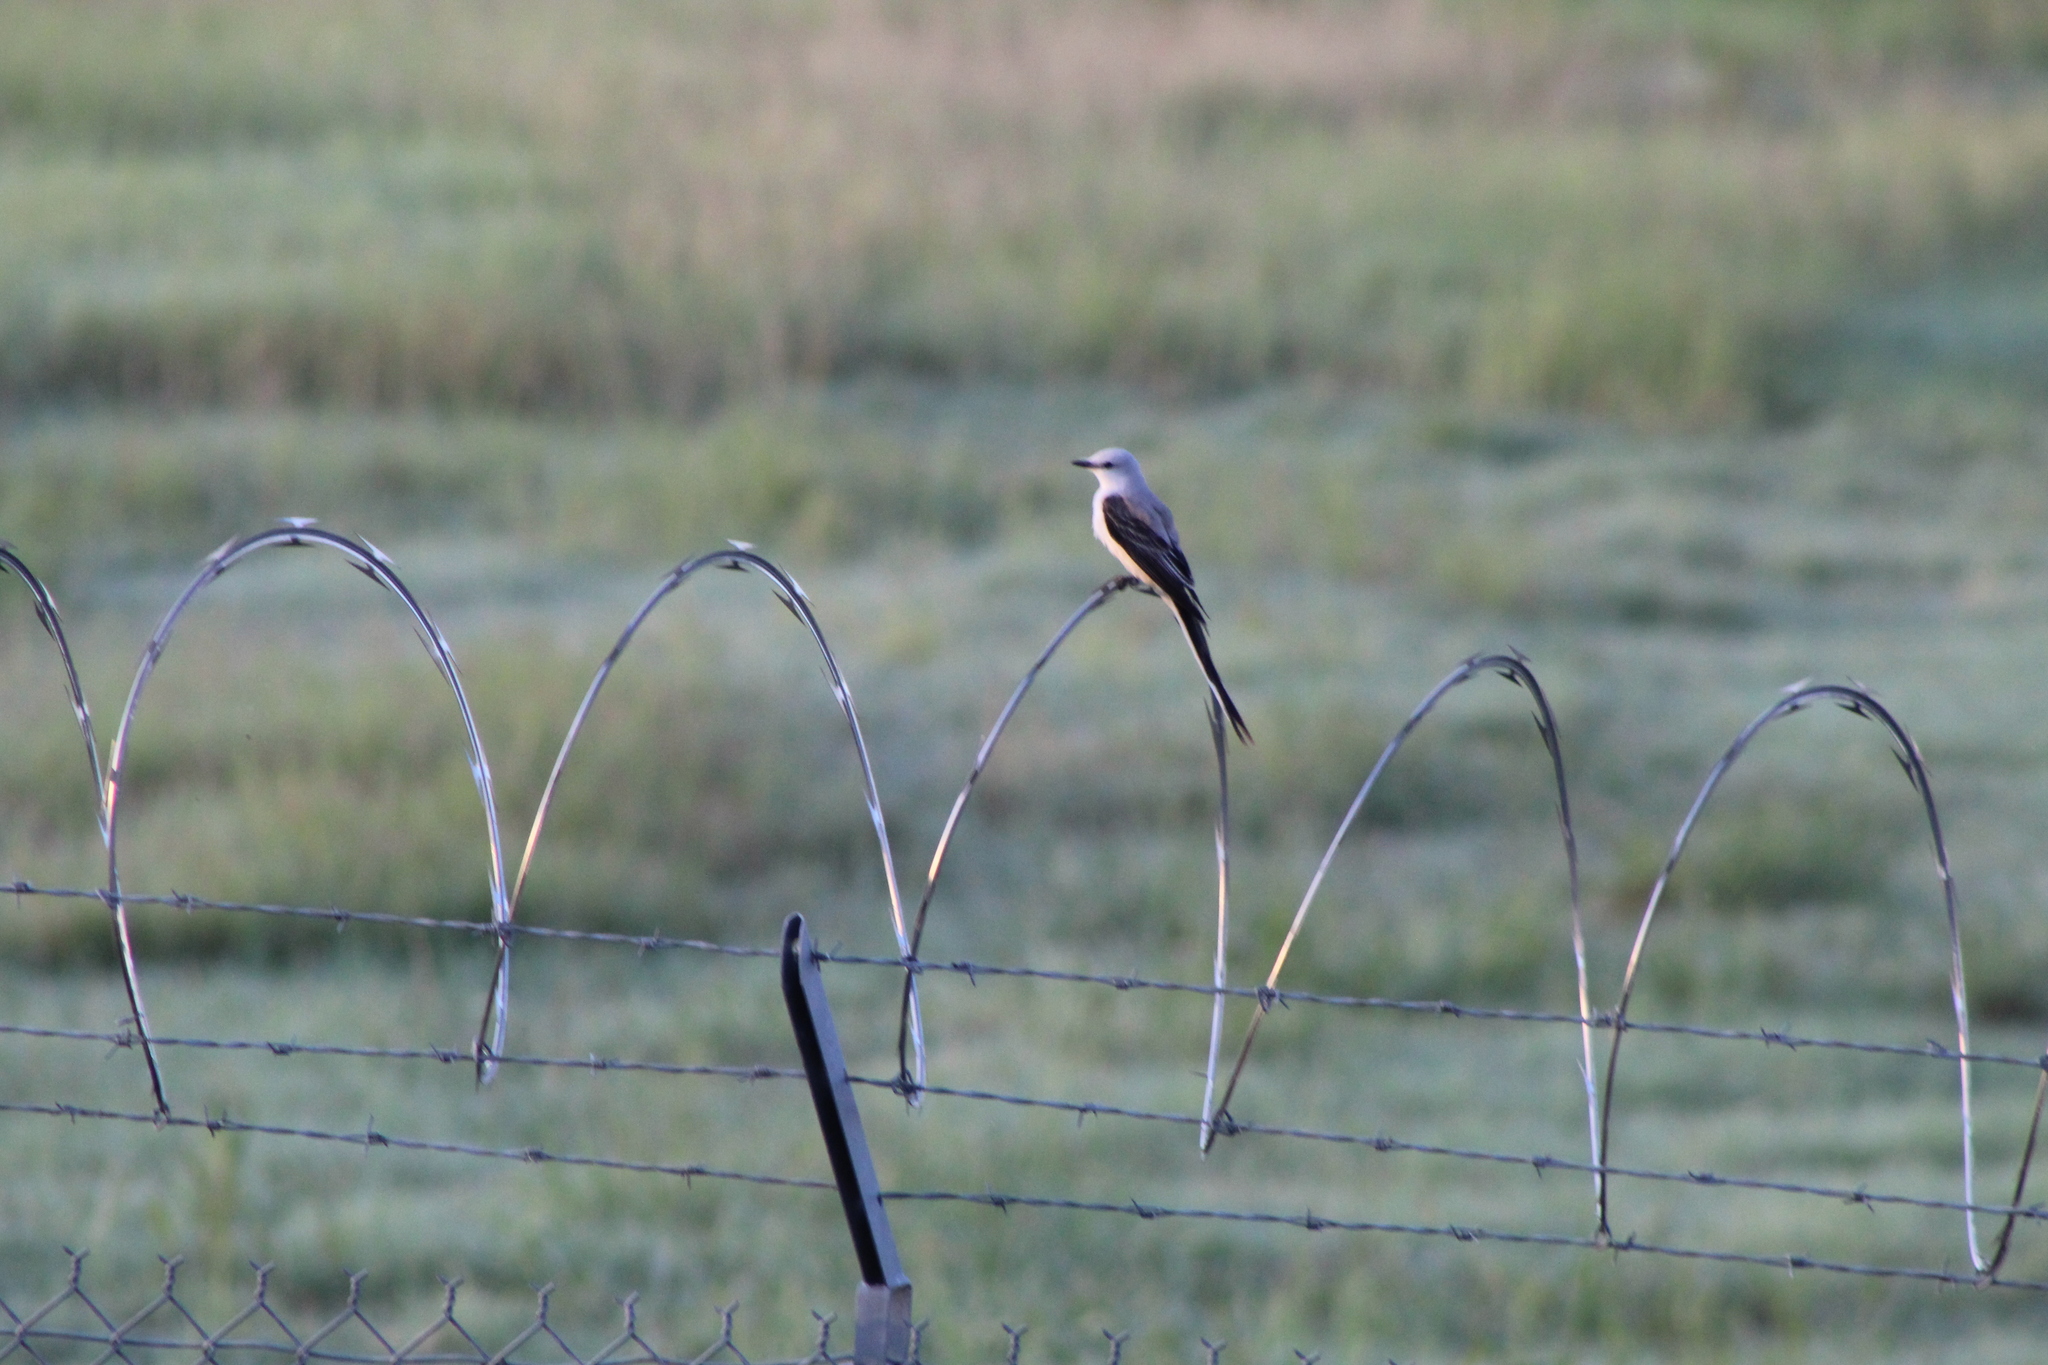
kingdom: Animalia
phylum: Chordata
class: Aves
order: Passeriformes
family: Tyrannidae
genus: Tyrannus
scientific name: Tyrannus forficatus
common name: Scissor-tailed flycatcher
